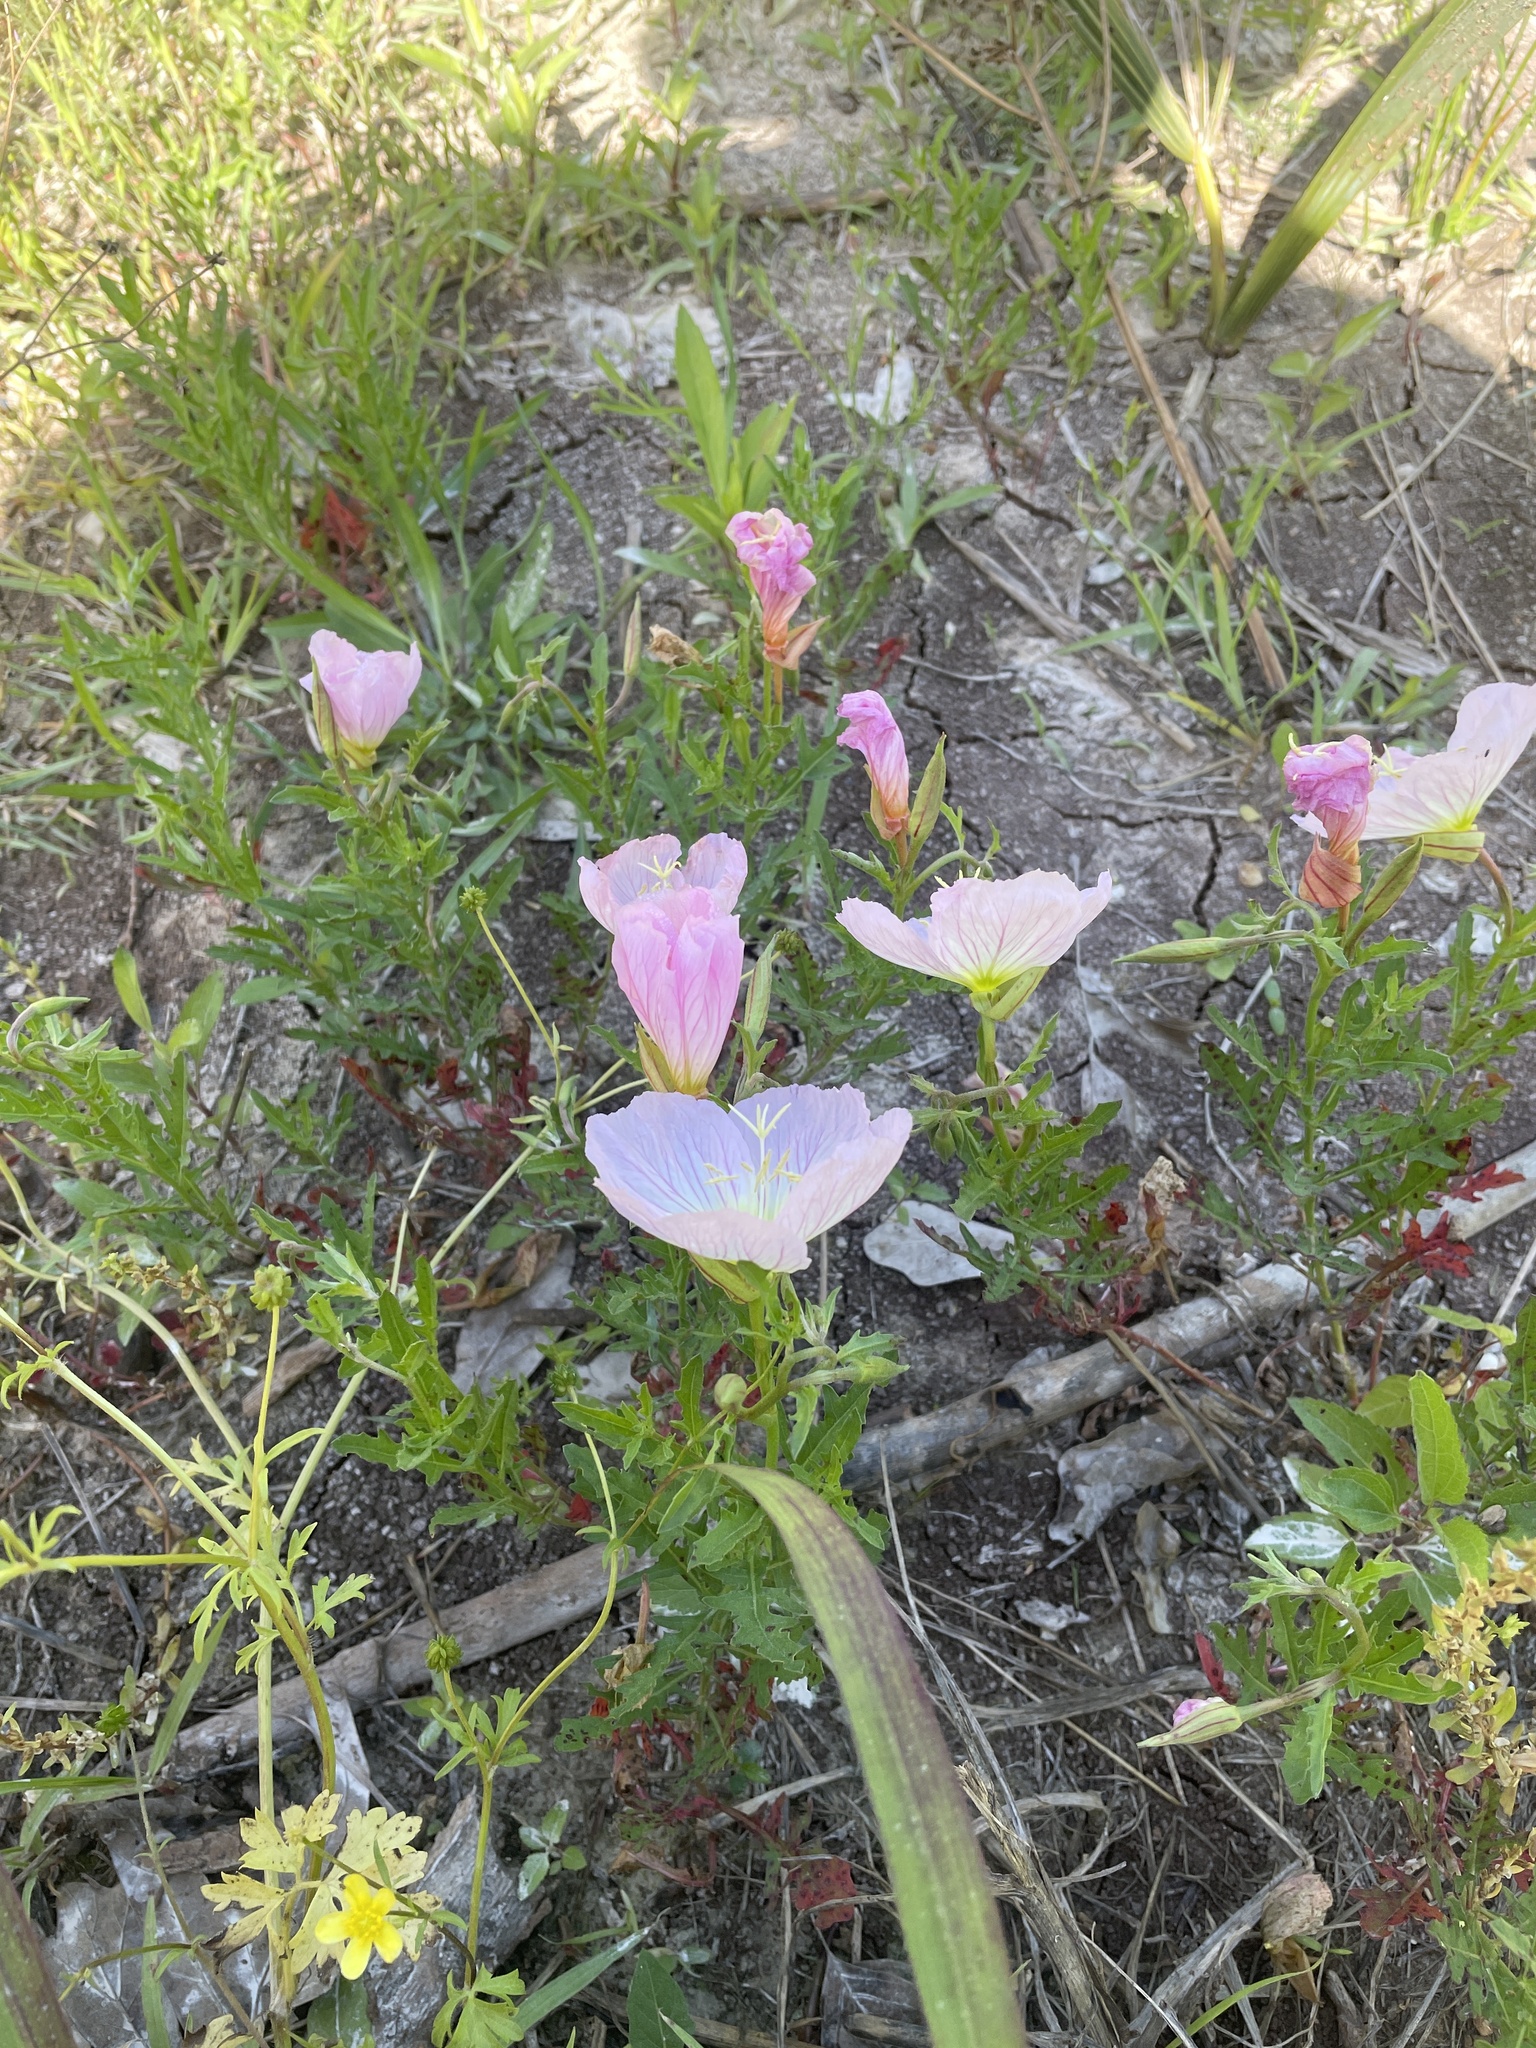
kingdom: Plantae
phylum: Tracheophyta
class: Magnoliopsida
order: Myrtales
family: Onagraceae
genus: Oenothera
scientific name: Oenothera speciosa
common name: White evening-primrose
